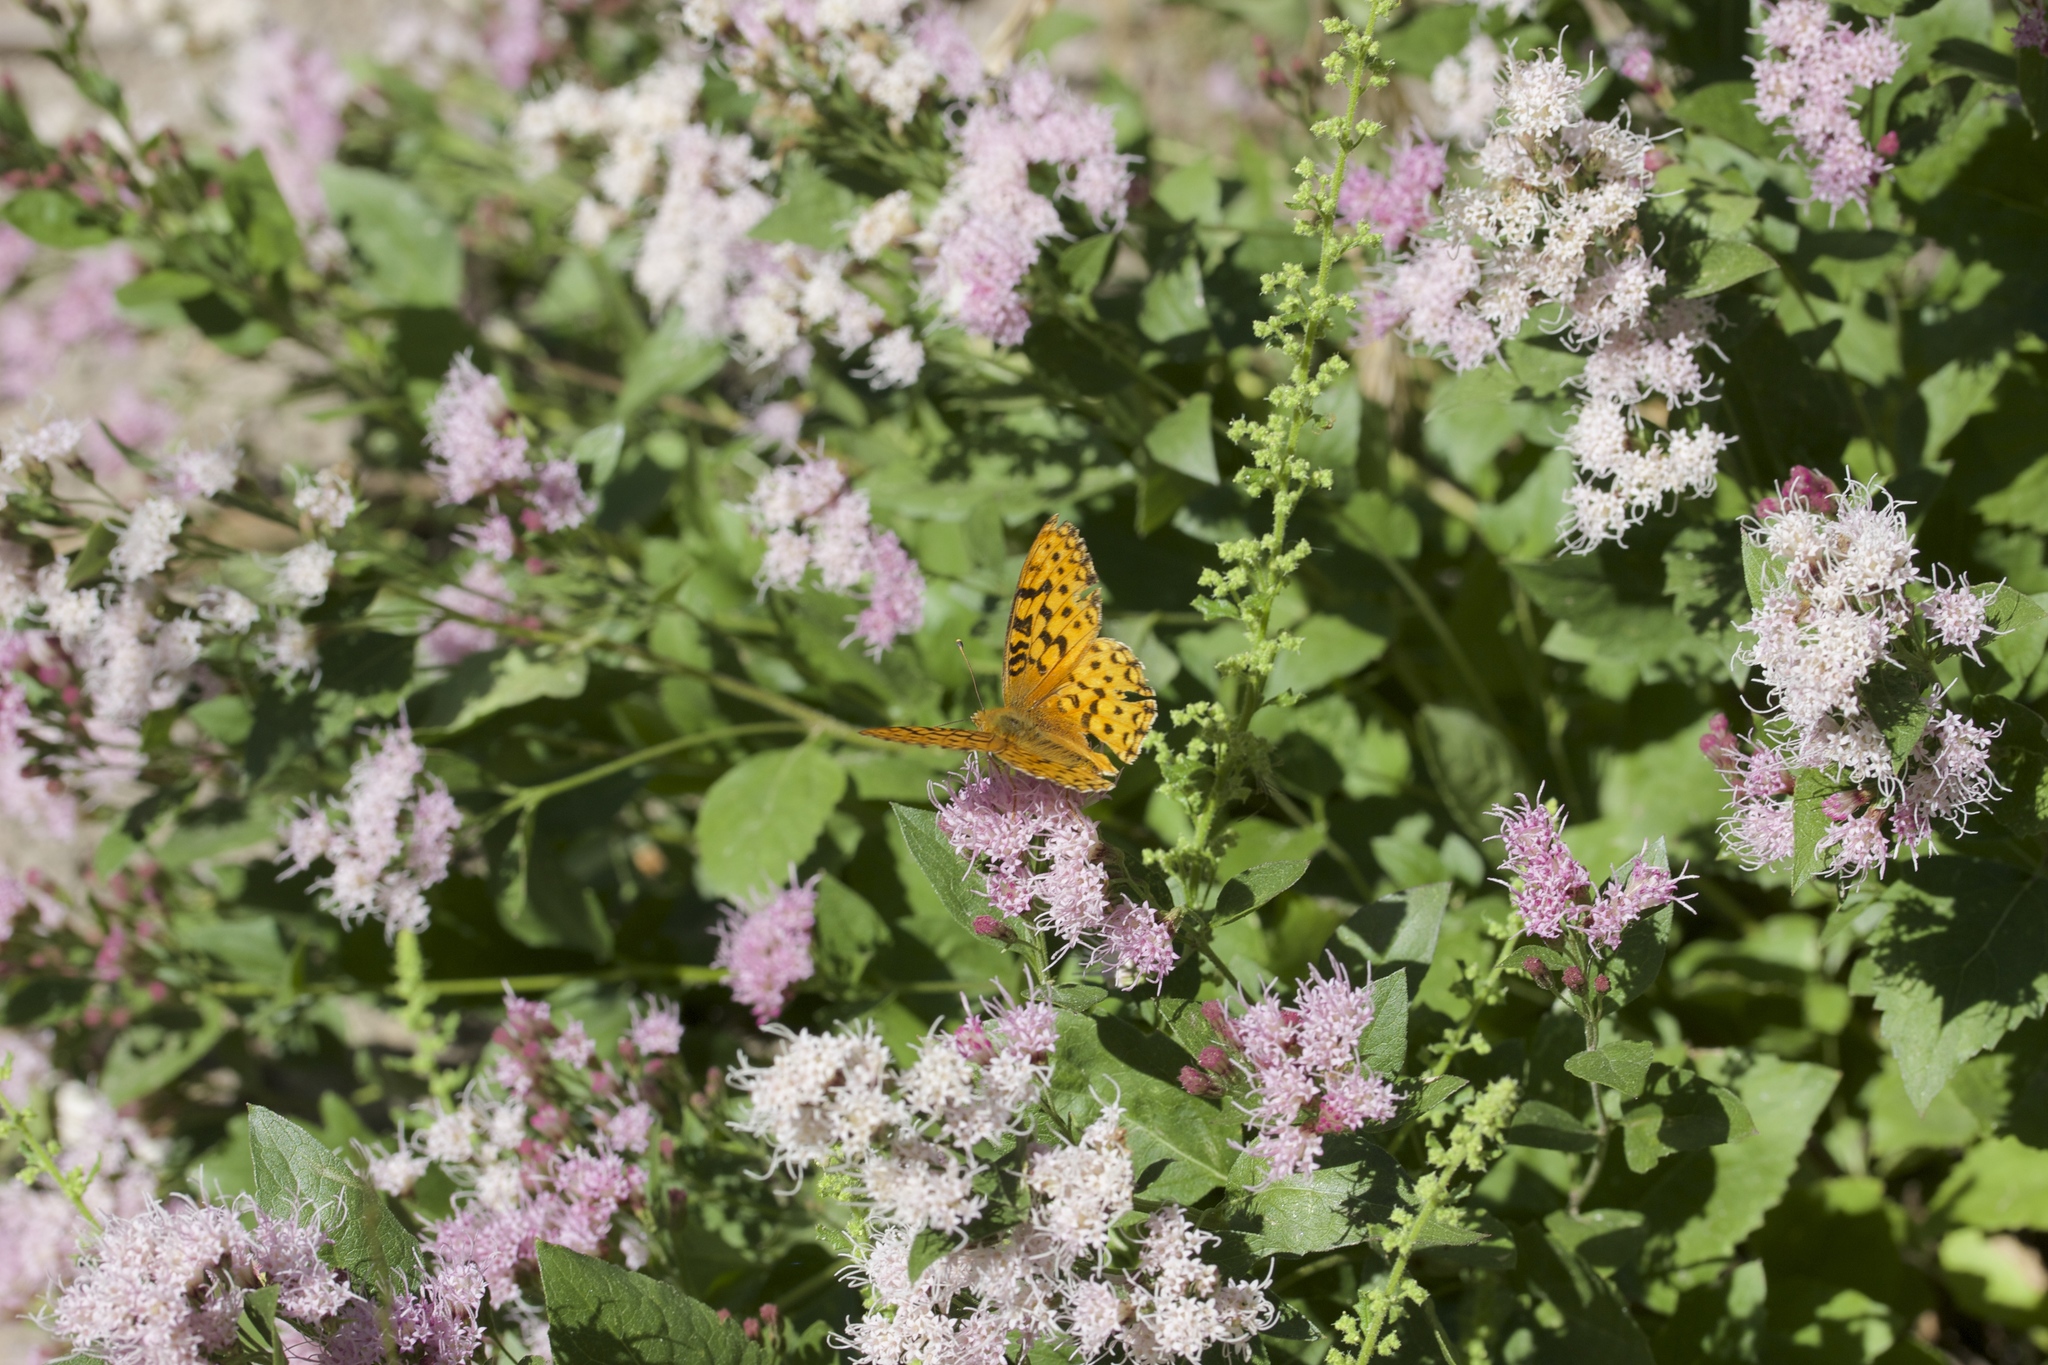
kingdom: Plantae
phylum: Tracheophyta
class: Magnoliopsida
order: Asterales
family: Asteraceae
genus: Ageratina
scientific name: Ageratina occidentalis
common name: Western snakeroot
